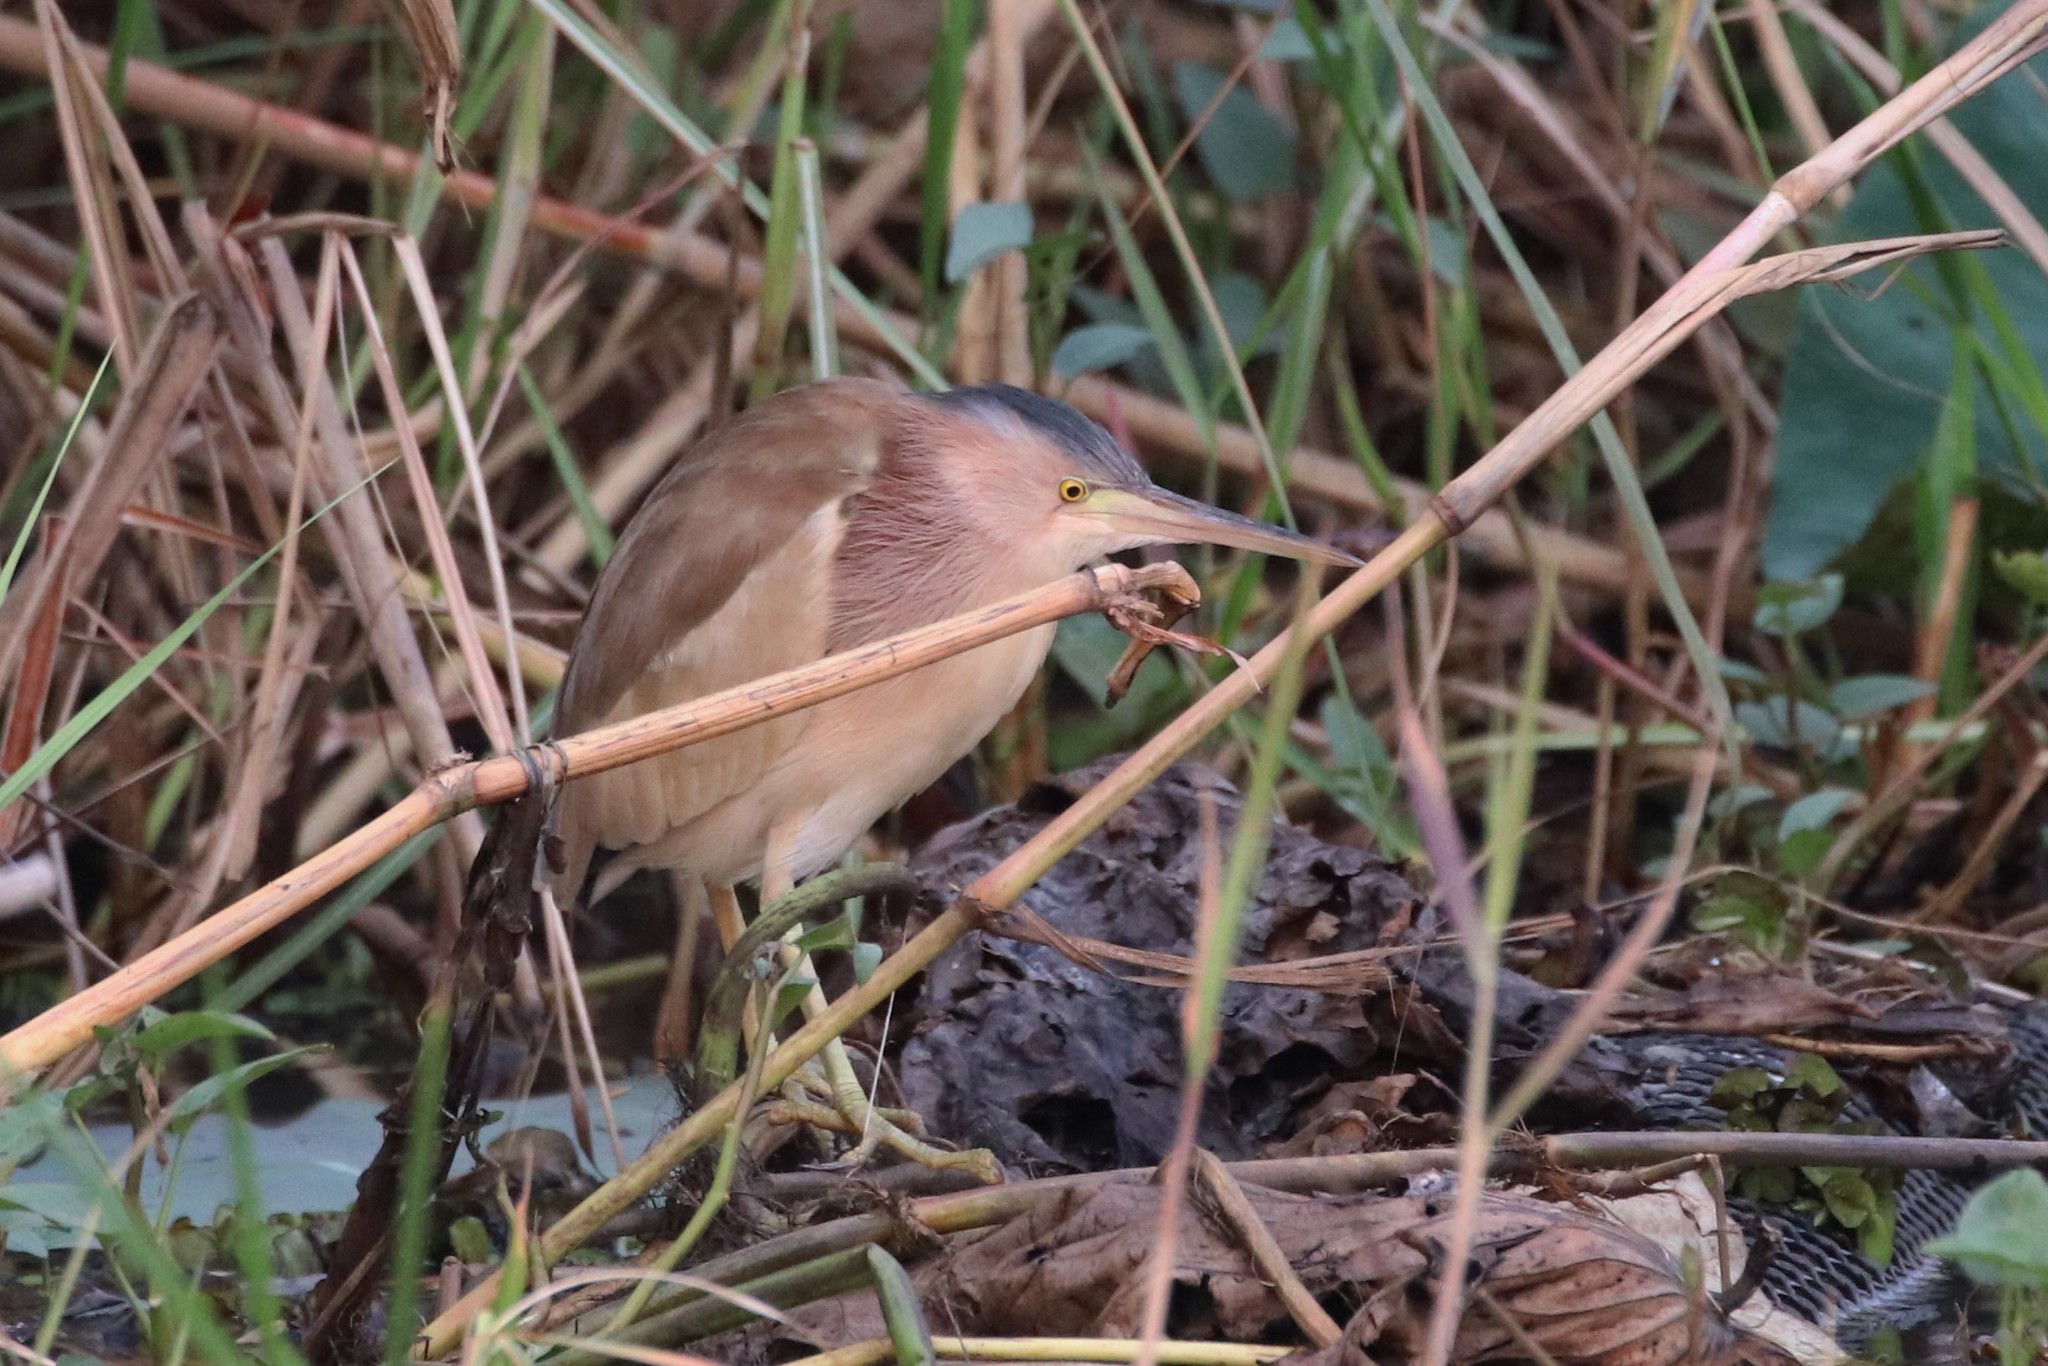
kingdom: Animalia
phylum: Chordata
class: Aves
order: Pelecaniformes
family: Ardeidae
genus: Ixobrychus
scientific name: Ixobrychus sinensis
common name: Yellow bittern
